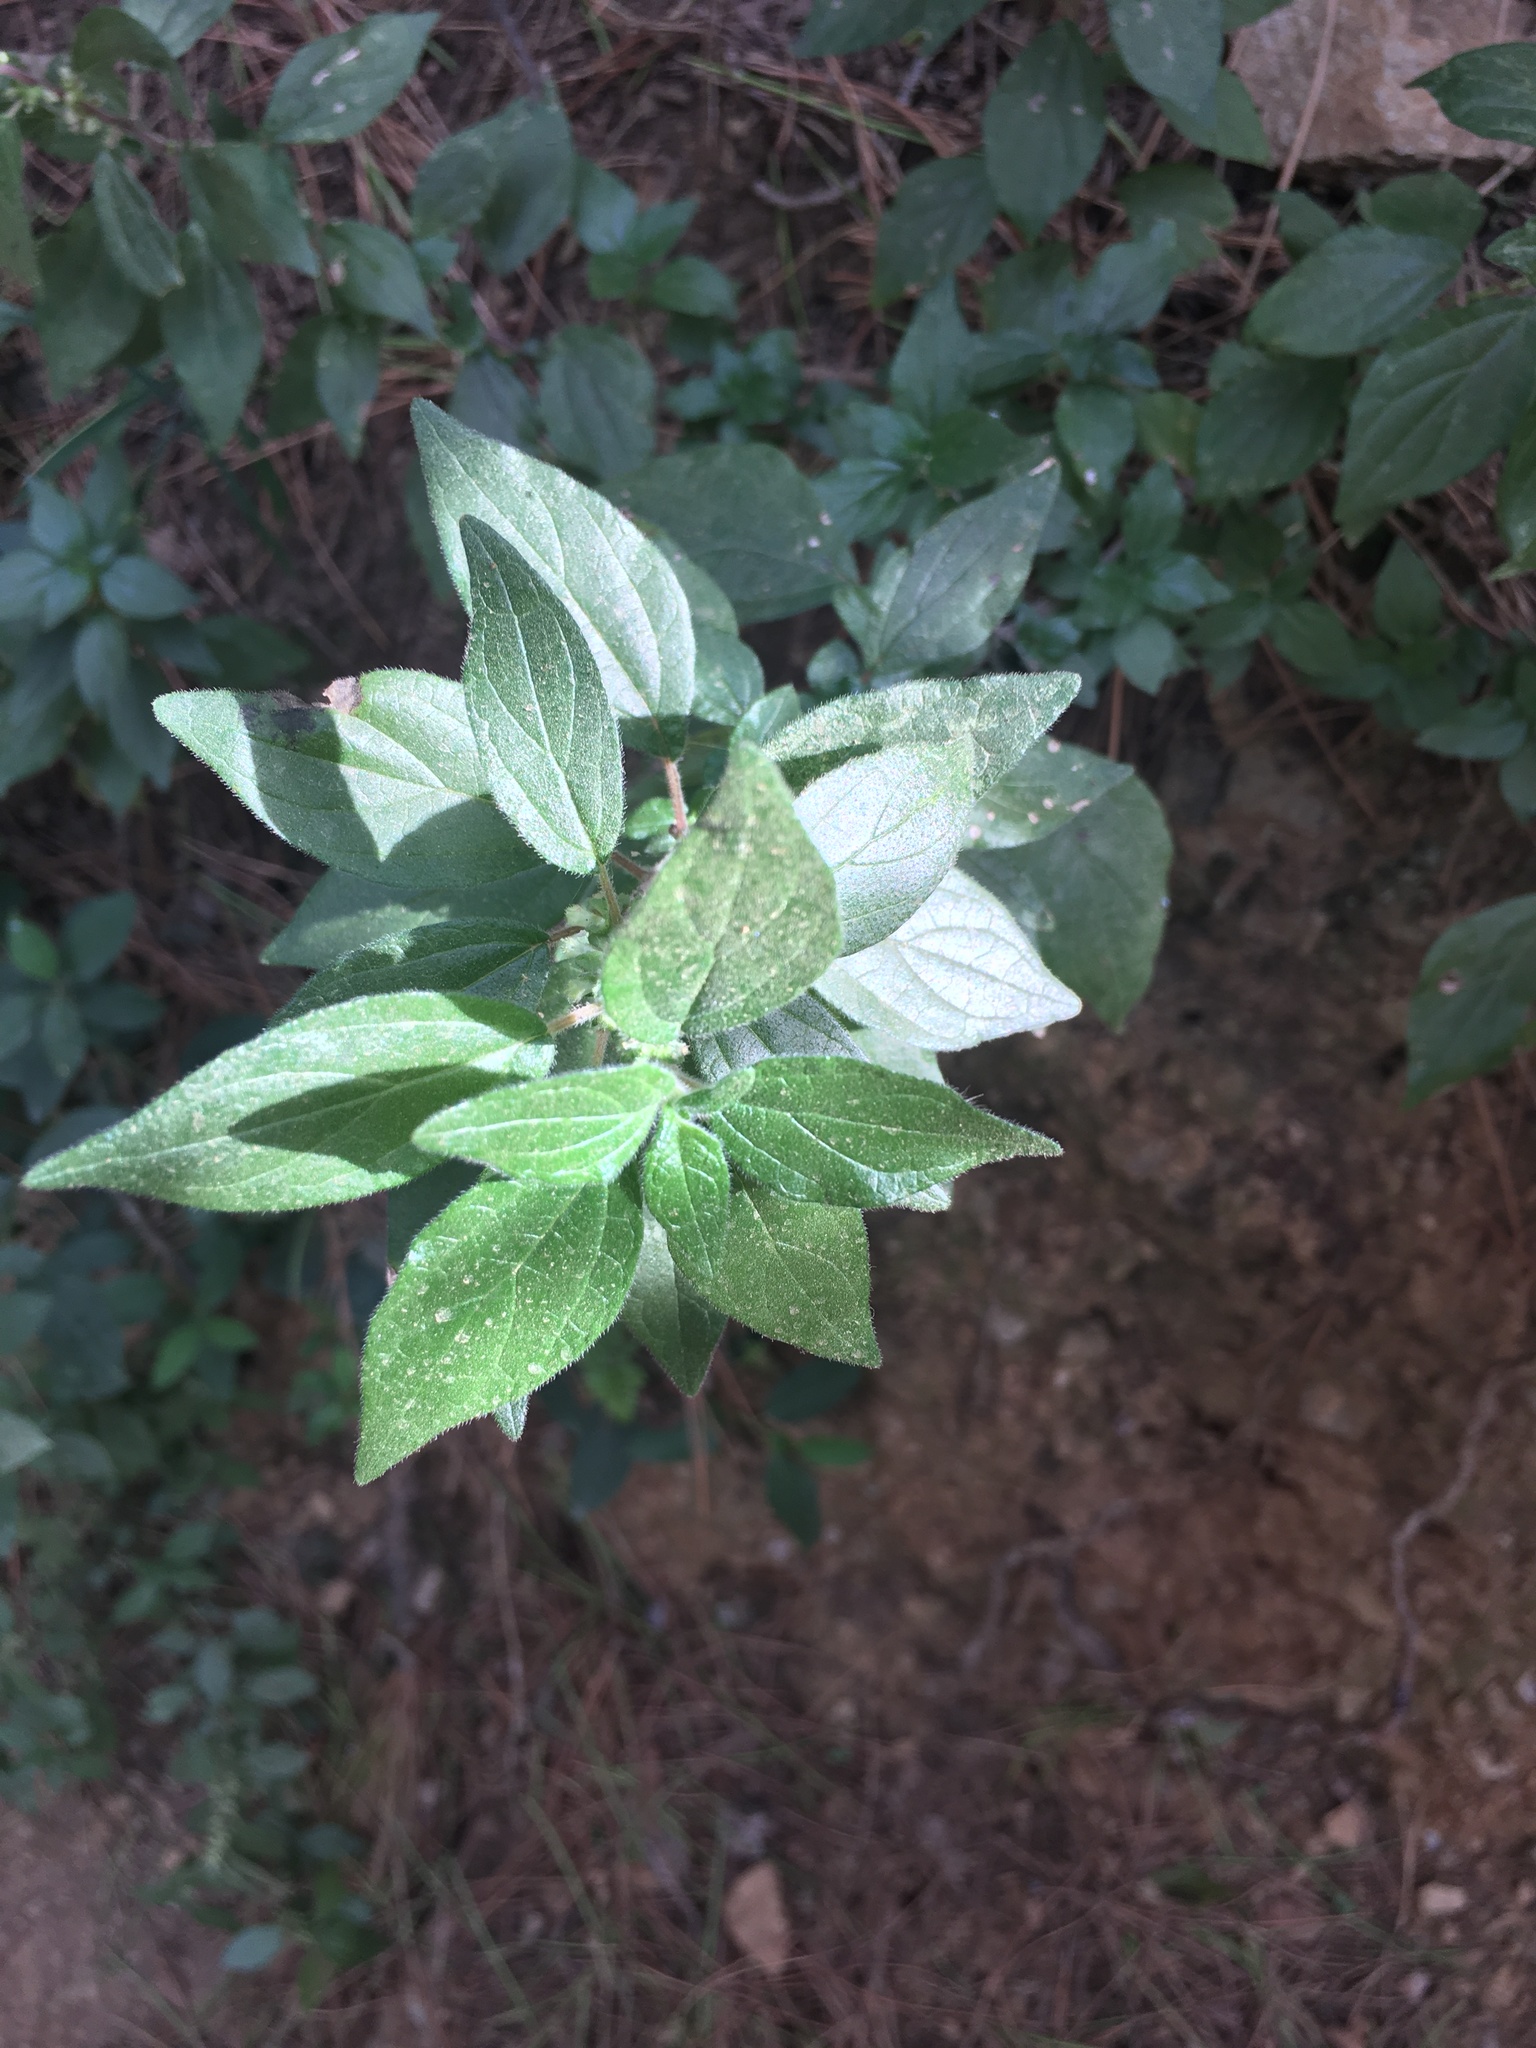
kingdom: Plantae
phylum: Tracheophyta
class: Magnoliopsida
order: Rosales
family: Urticaceae
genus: Parietaria
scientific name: Parietaria judaica
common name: Pellitory-of-the-wall
